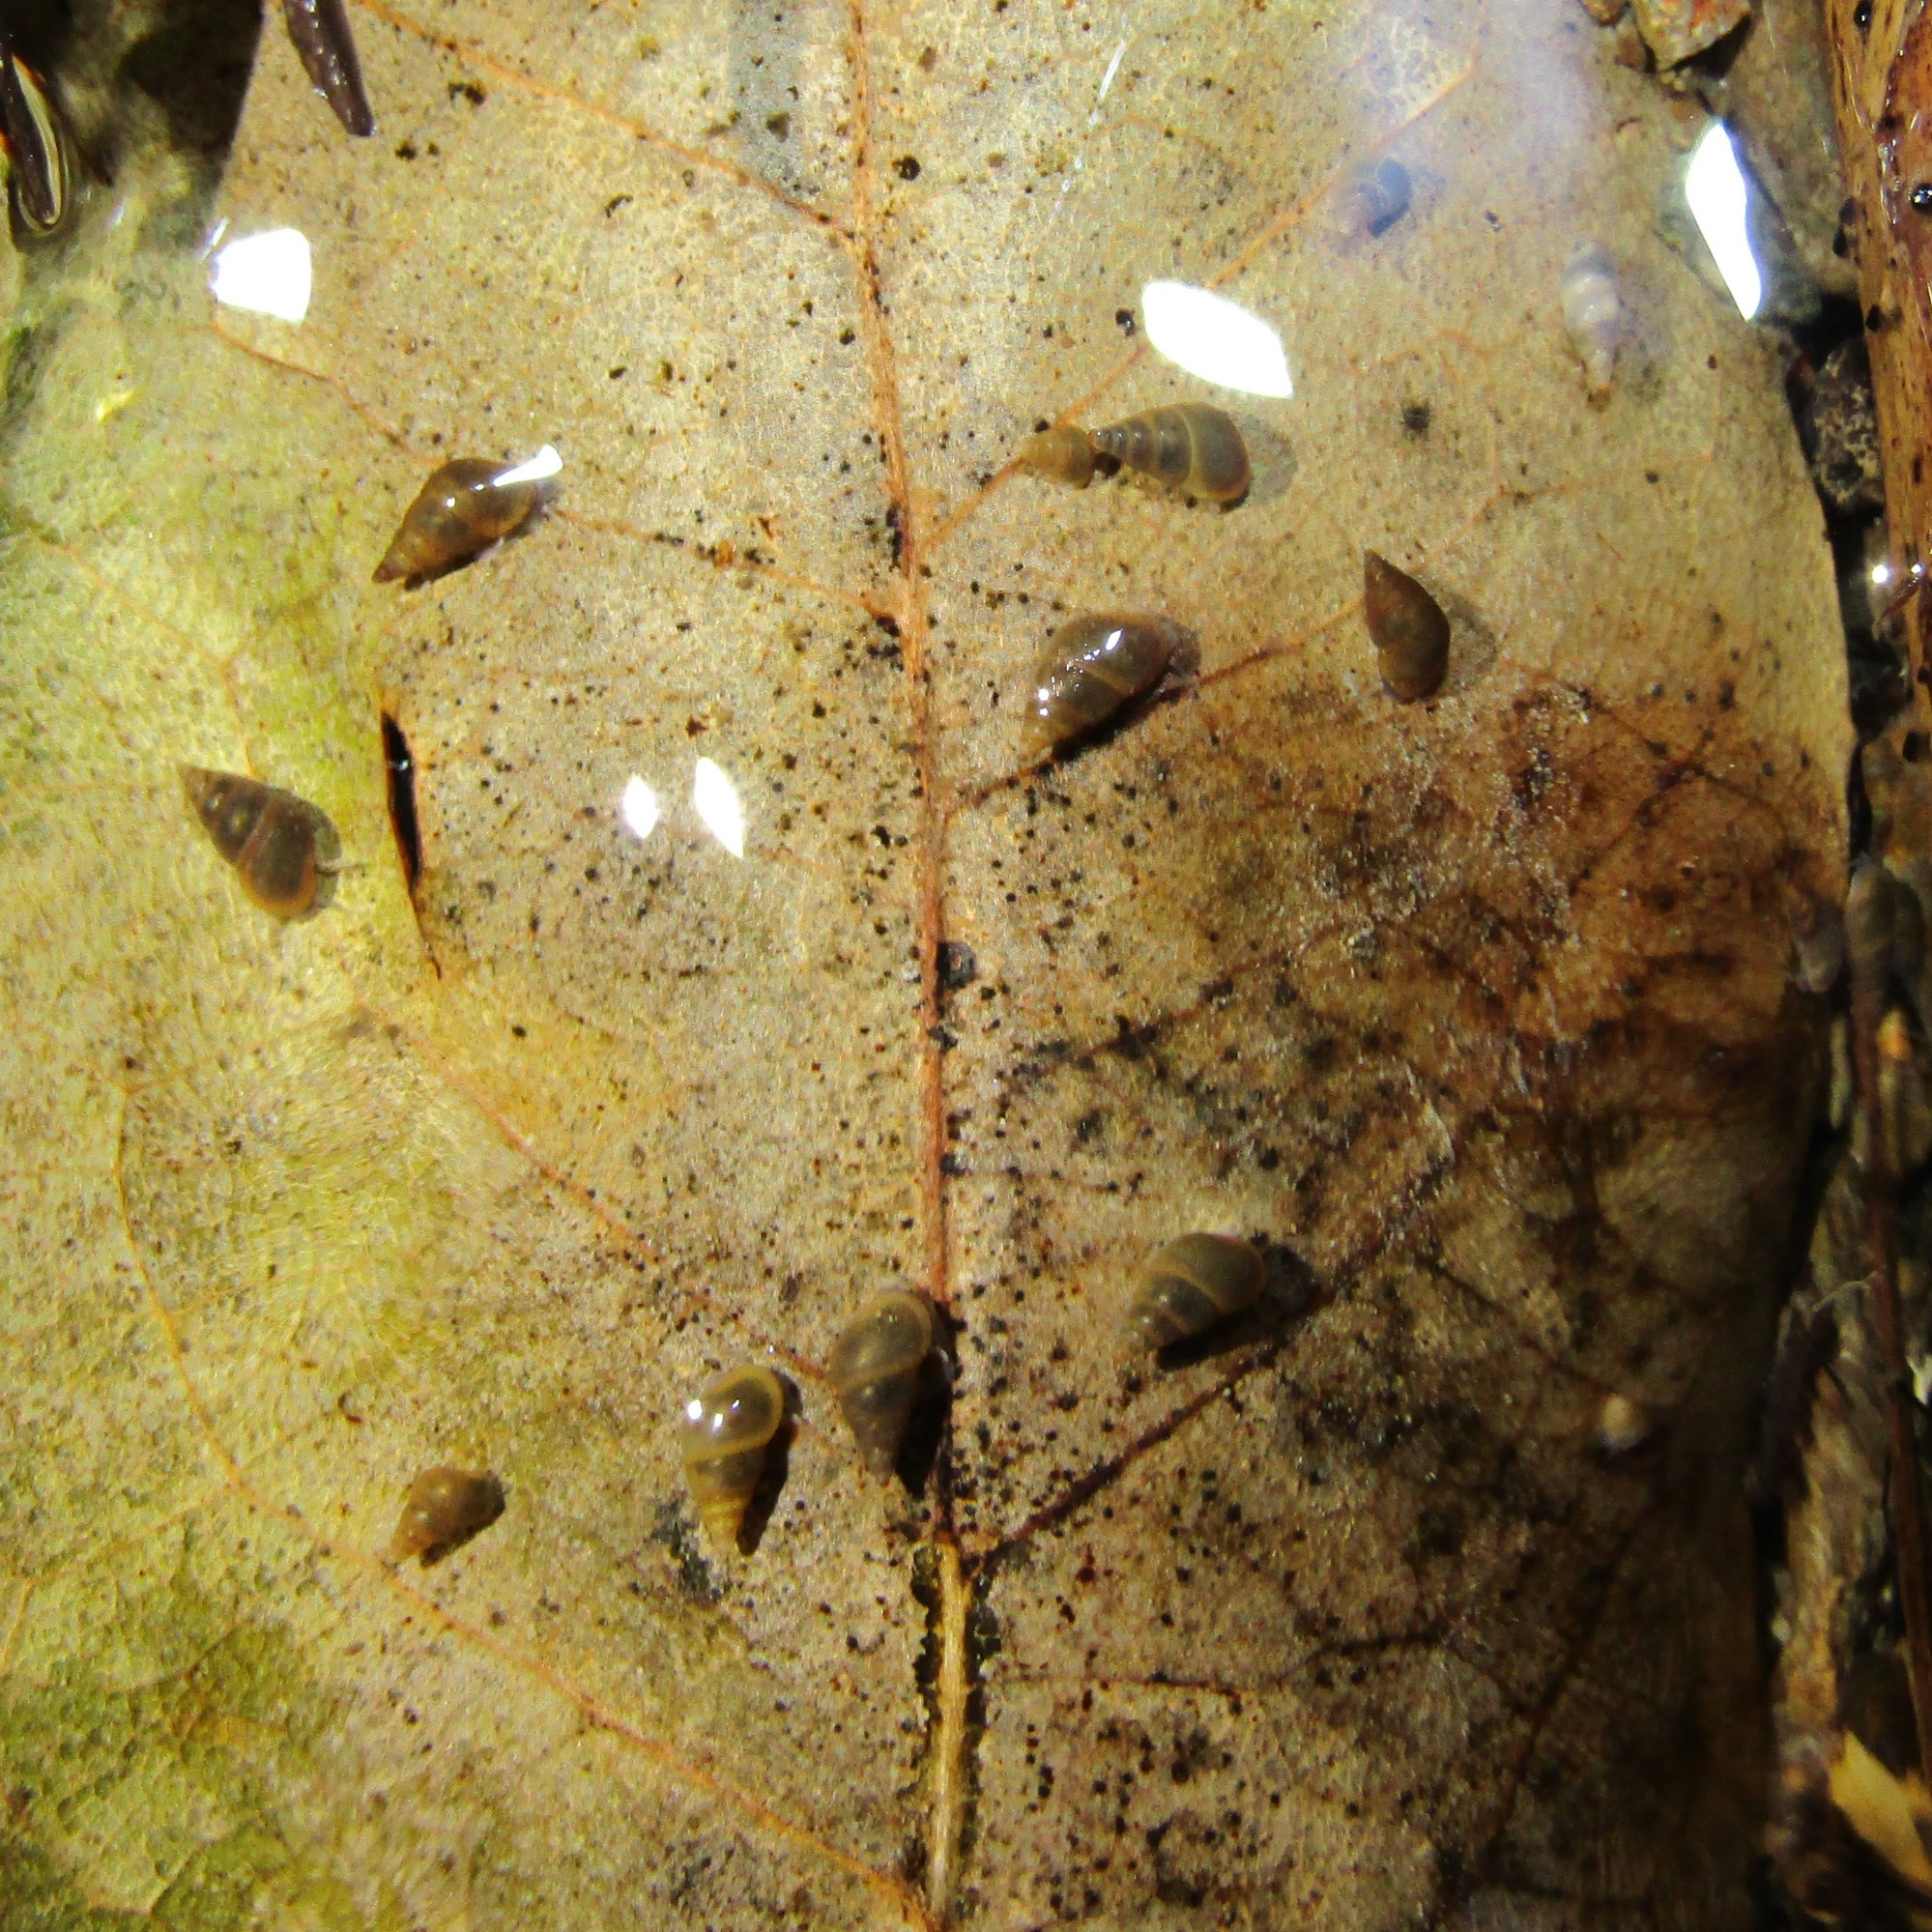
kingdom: Animalia
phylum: Mollusca
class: Gastropoda
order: Littorinimorpha
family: Tateidae
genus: Potamopyrgus
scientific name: Potamopyrgus antipodarum
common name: Jenkins' spire snail
